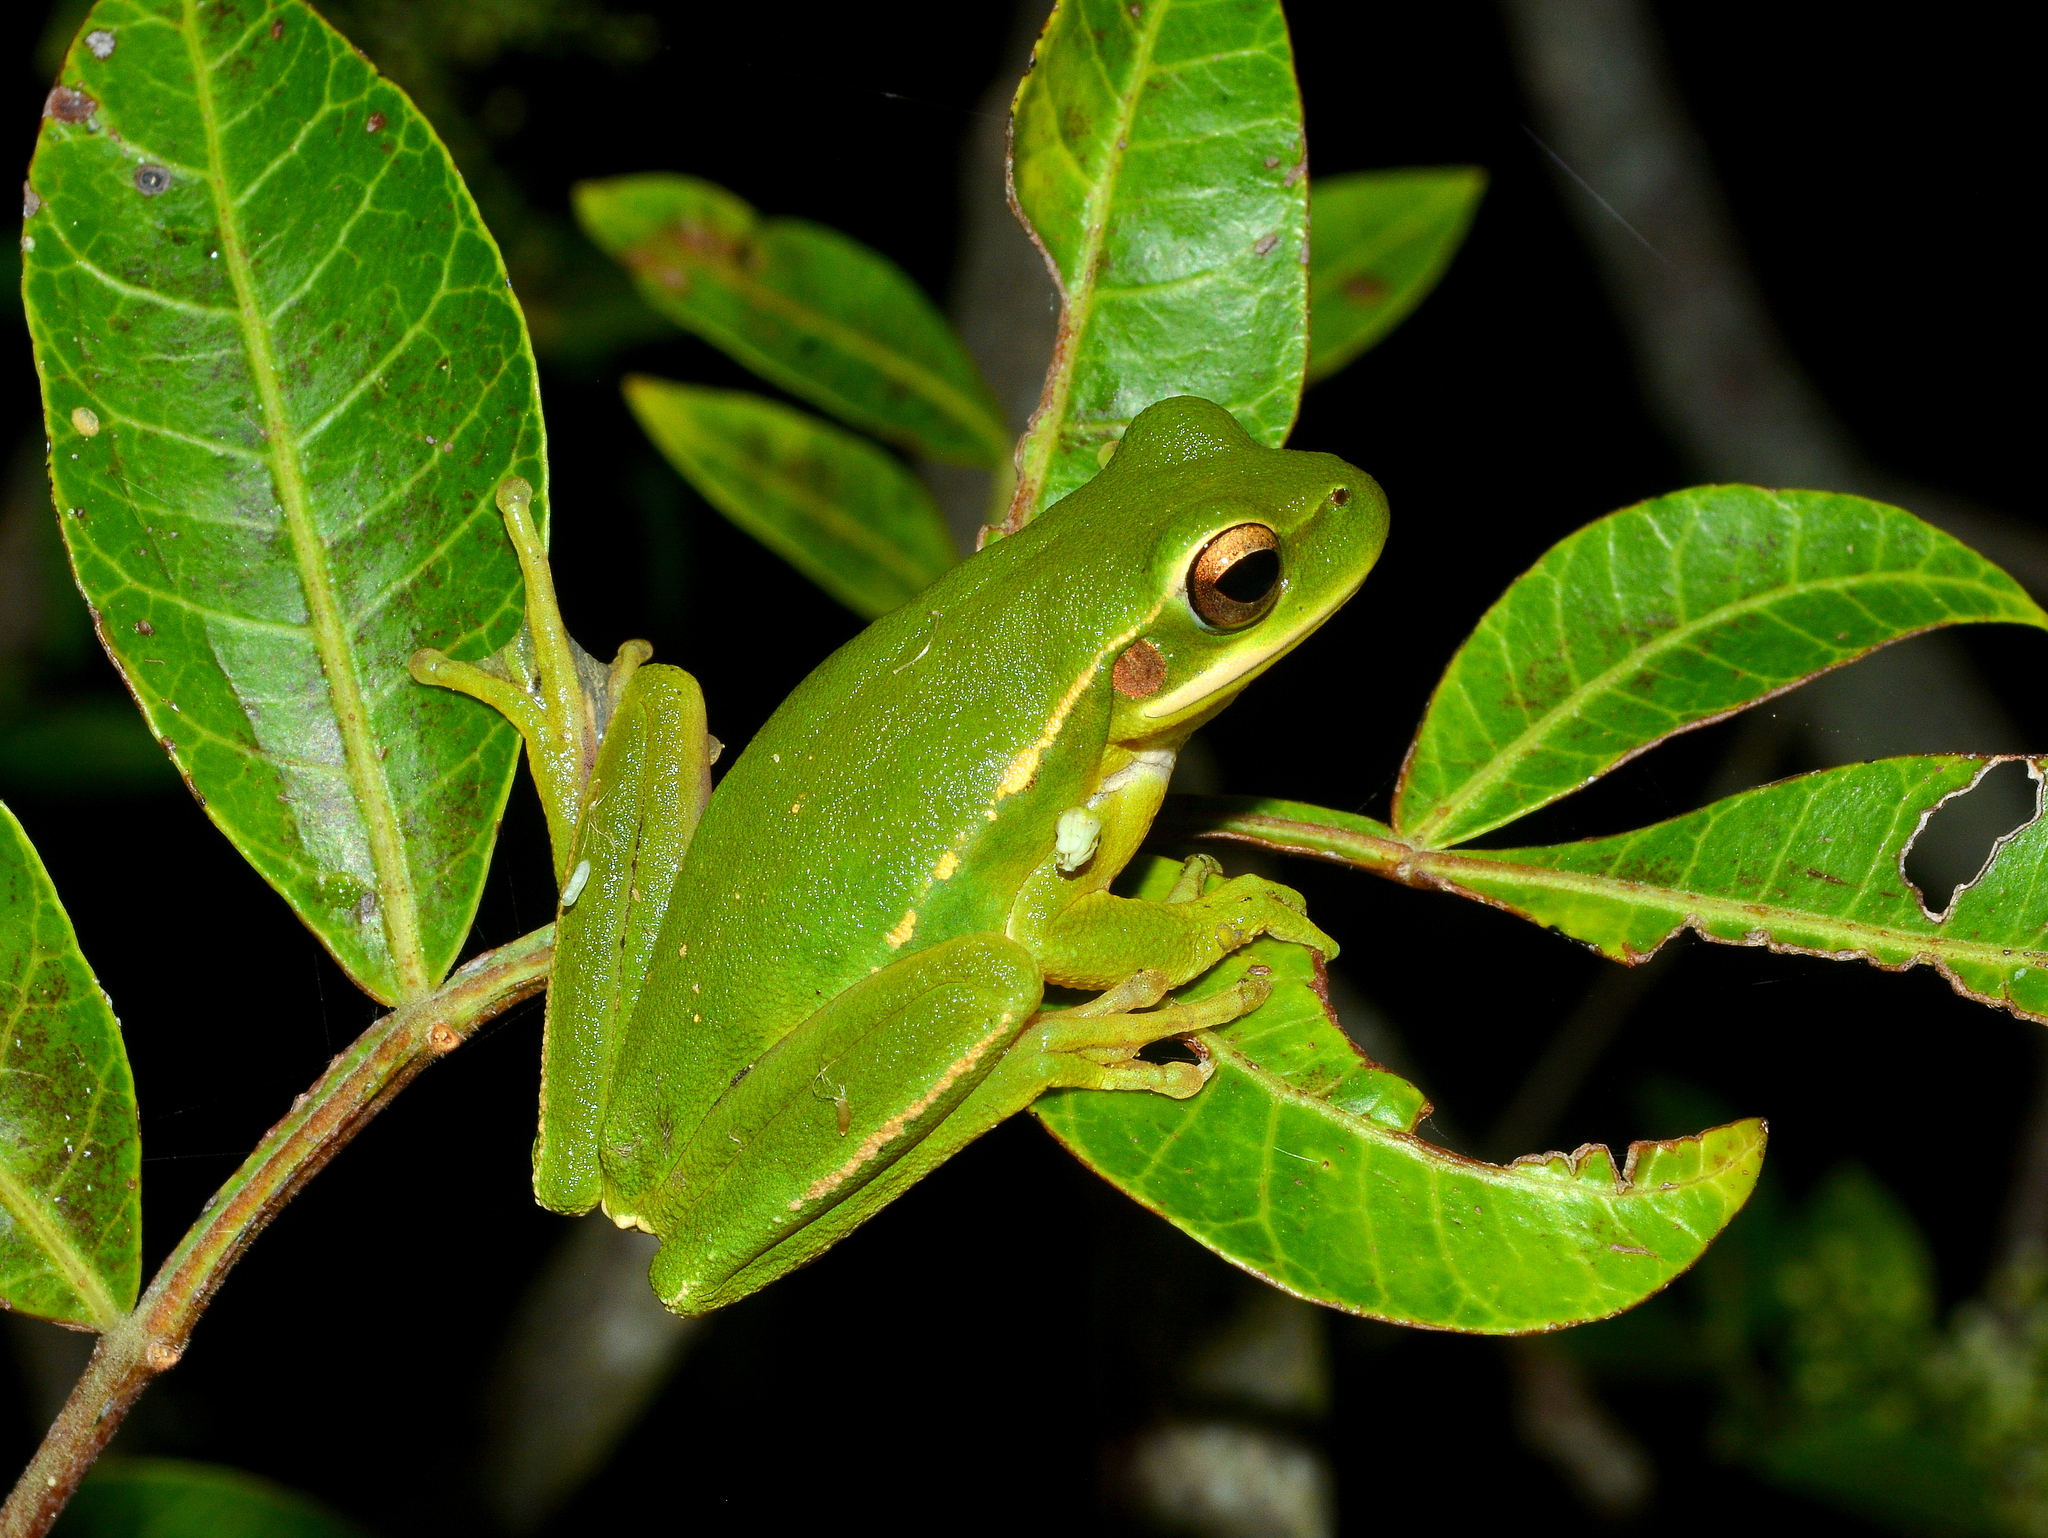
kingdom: Animalia
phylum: Chordata
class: Amphibia
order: Anura
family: Hylidae
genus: Boana
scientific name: Boana pulchella
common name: Montevideo treefrog
